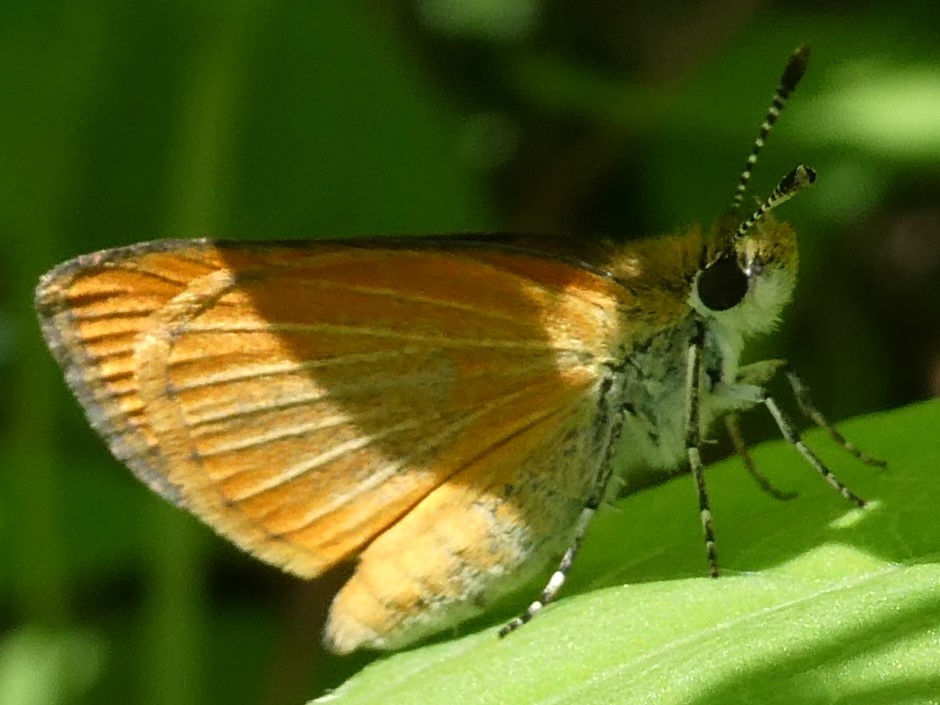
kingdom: Animalia
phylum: Arthropoda
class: Insecta
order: Lepidoptera
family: Hesperiidae
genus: Ancyloxypha
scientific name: Ancyloxypha numitor
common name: Least skipper
